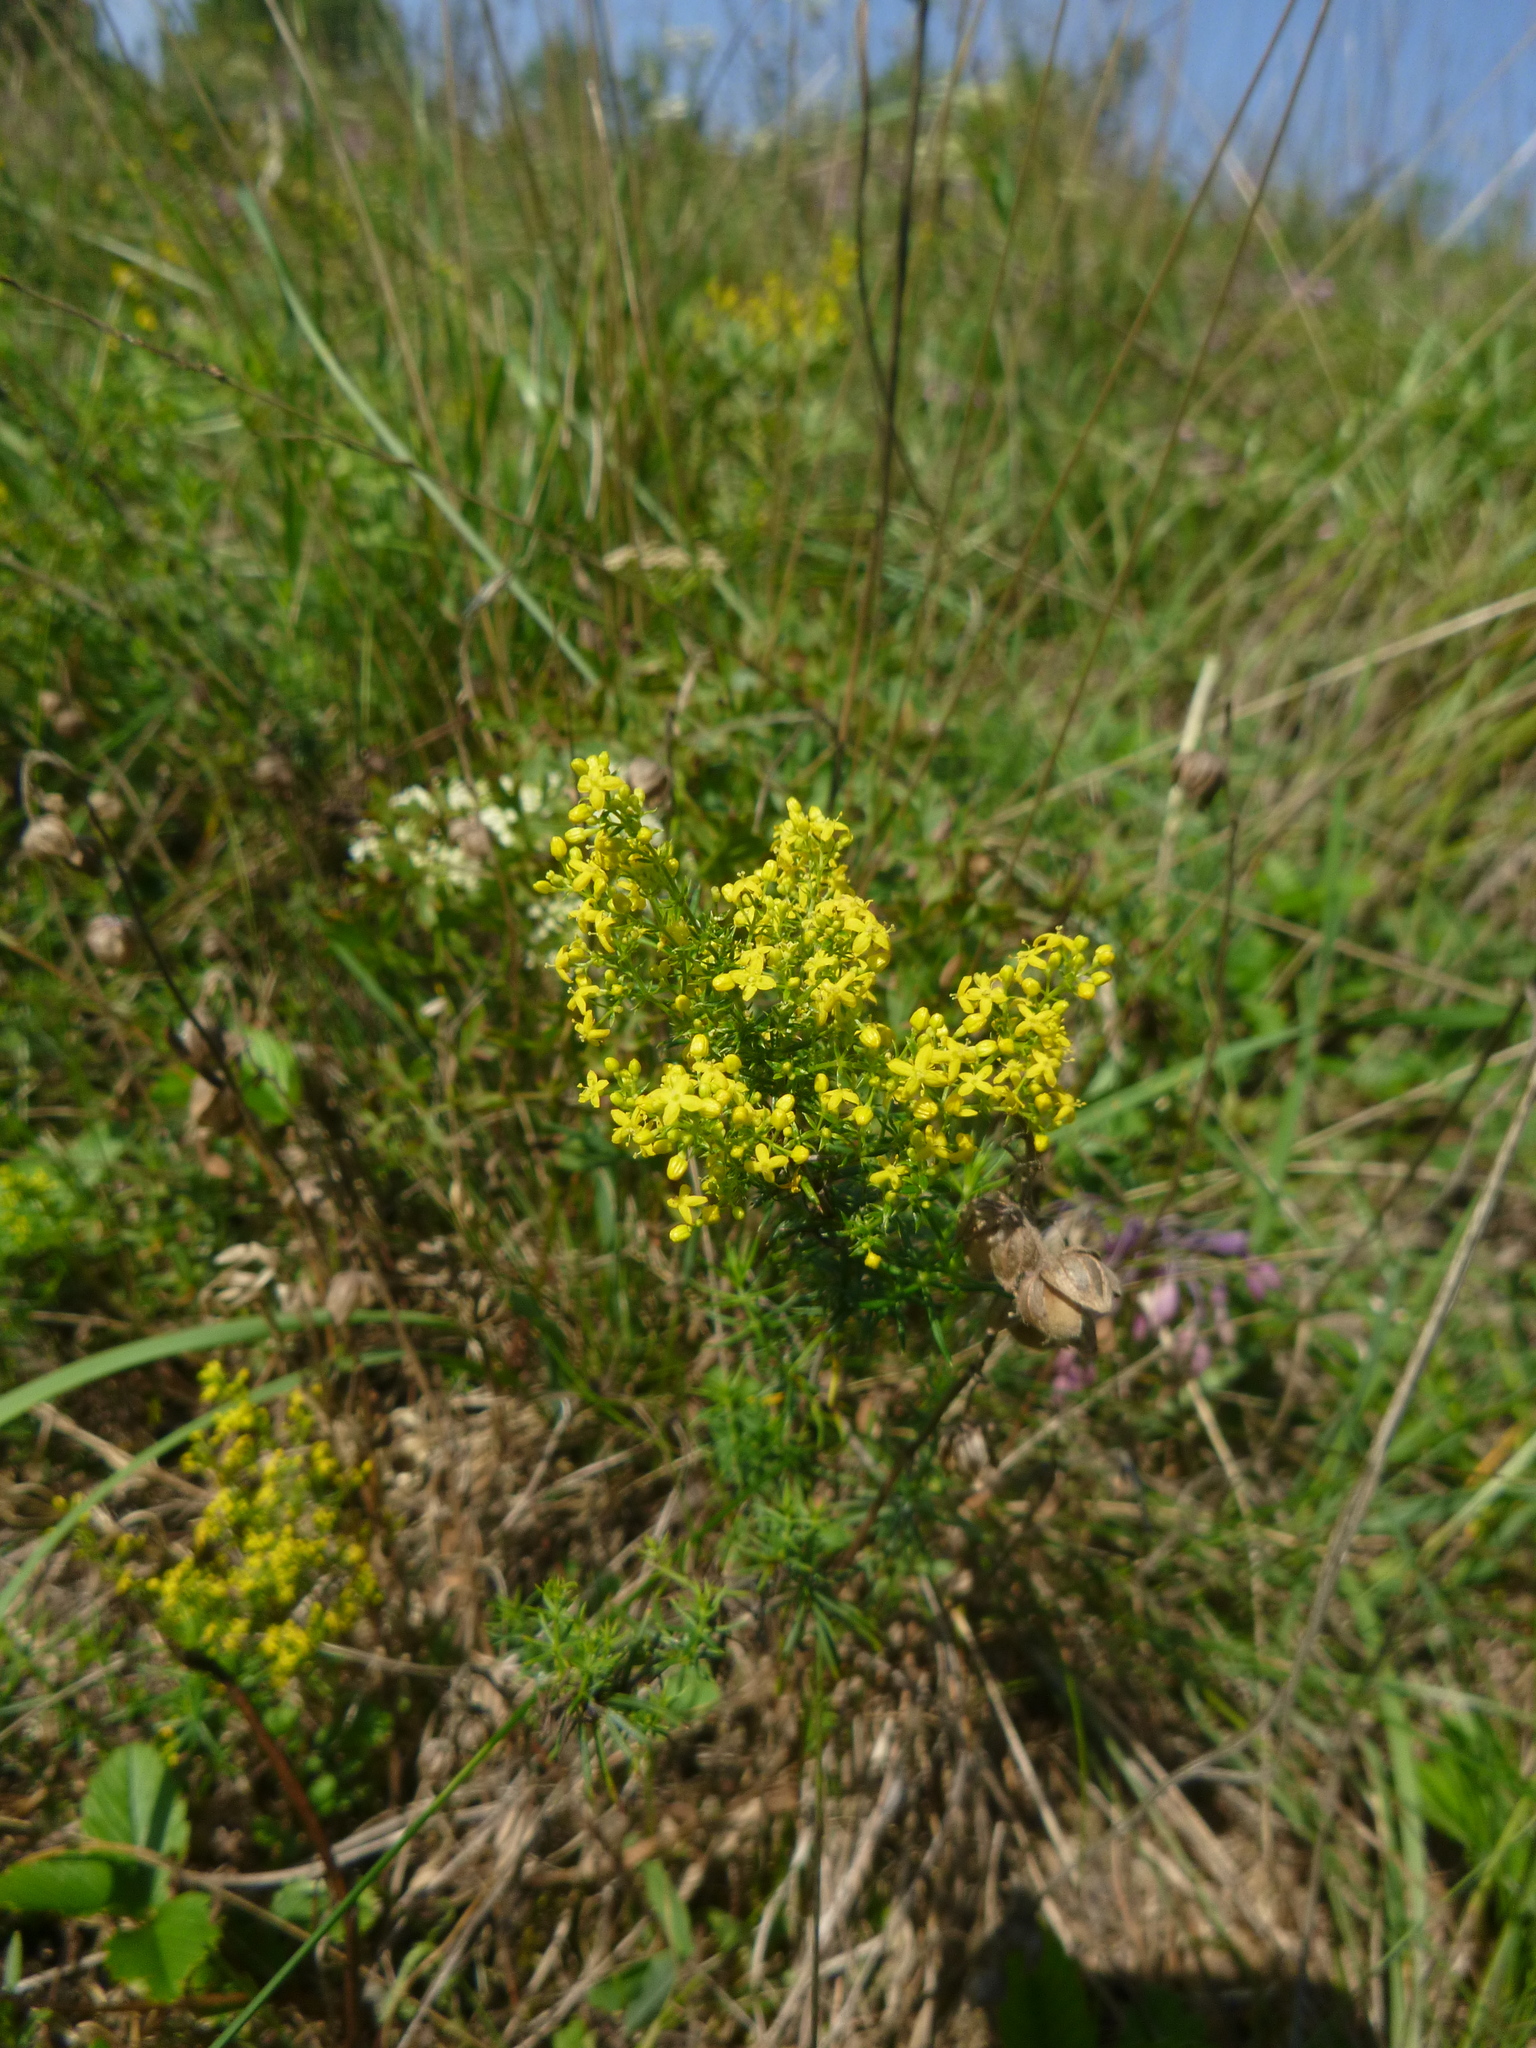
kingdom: Plantae
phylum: Tracheophyta
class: Magnoliopsida
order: Gentianales
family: Rubiaceae
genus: Galium
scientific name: Galium verum
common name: Lady's bedstraw
